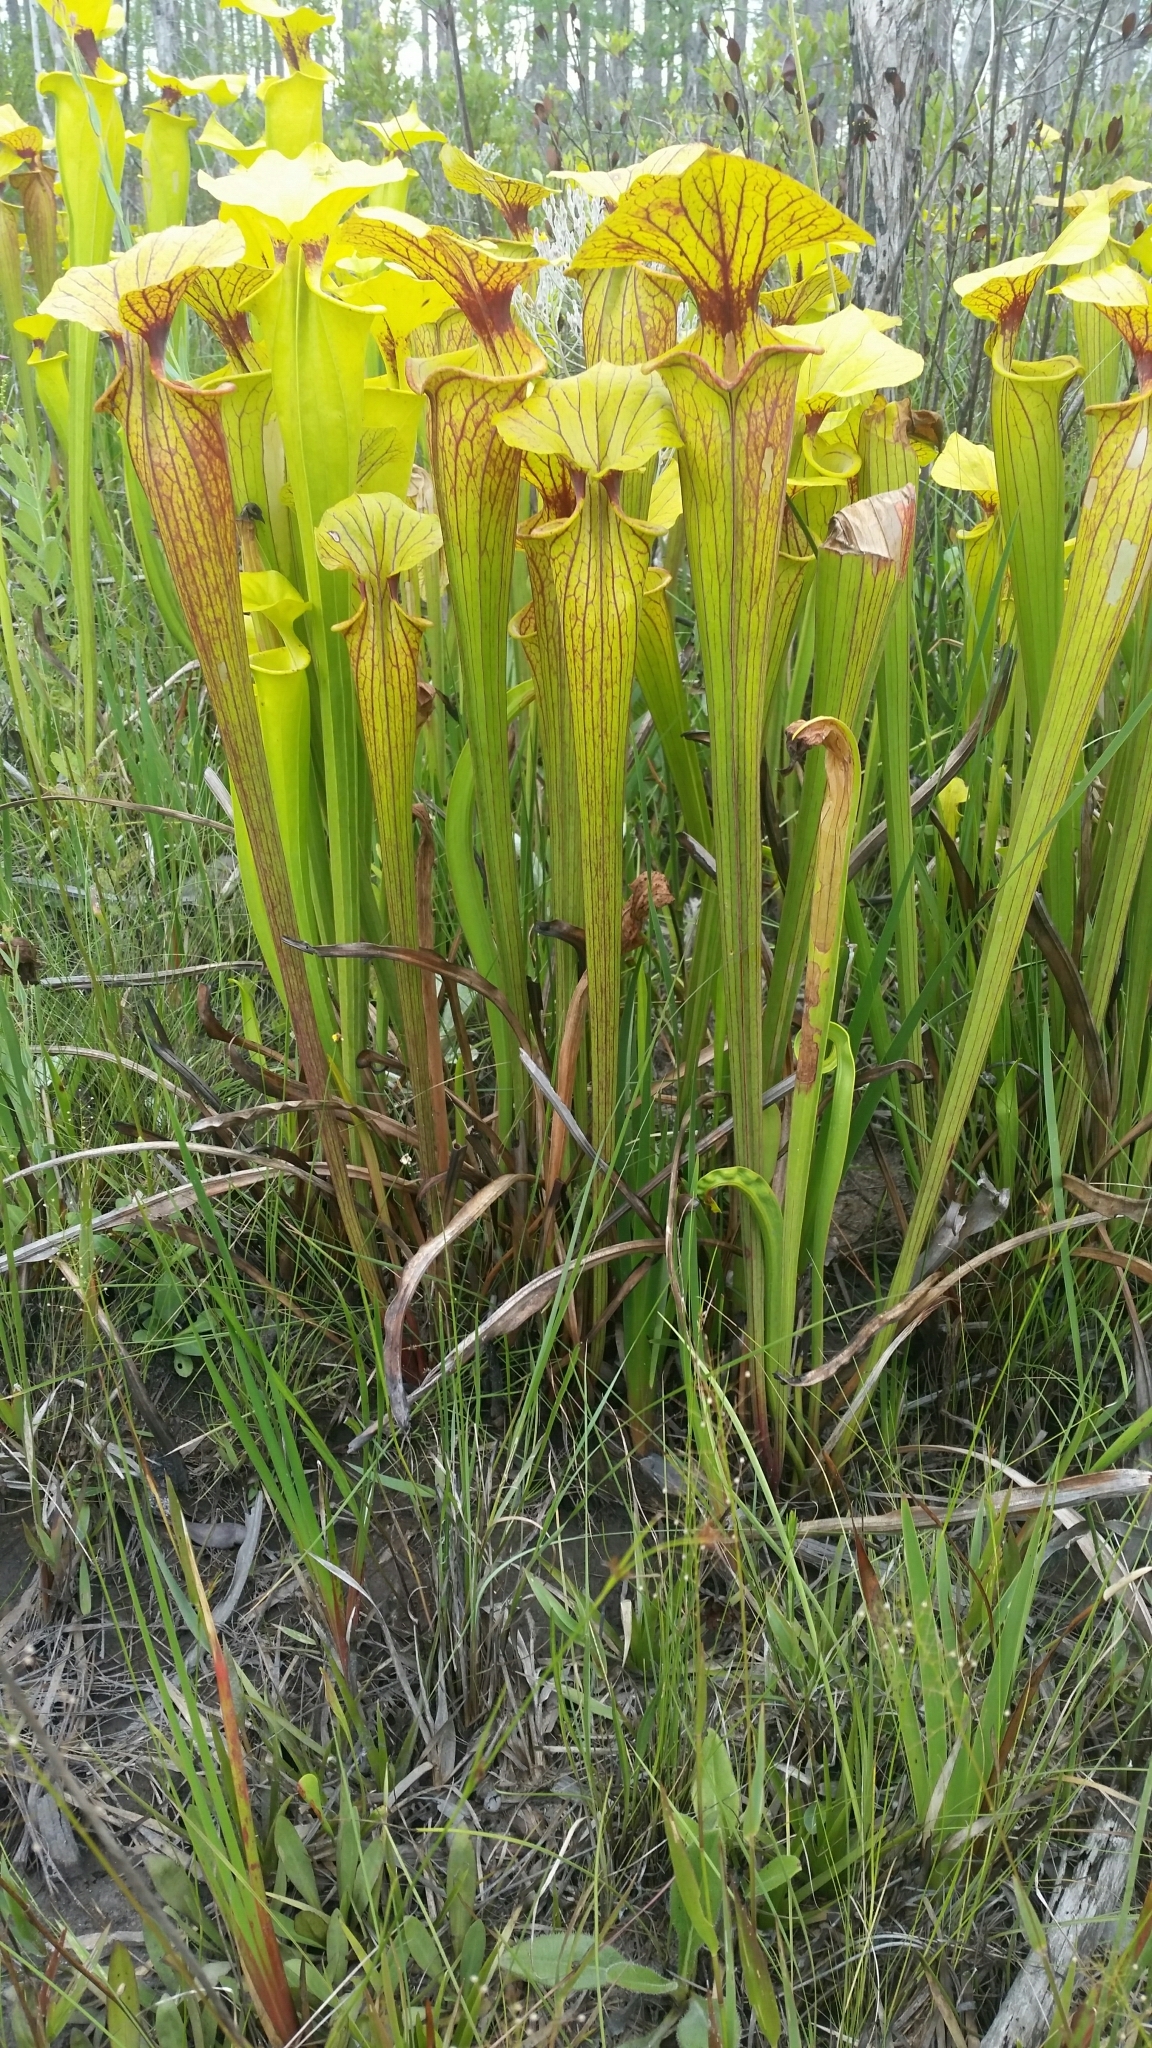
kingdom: Plantae
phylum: Tracheophyta
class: Magnoliopsida
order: Ericales
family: Sarraceniaceae
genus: Sarracenia
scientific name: Sarracenia flava
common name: Trumpets
